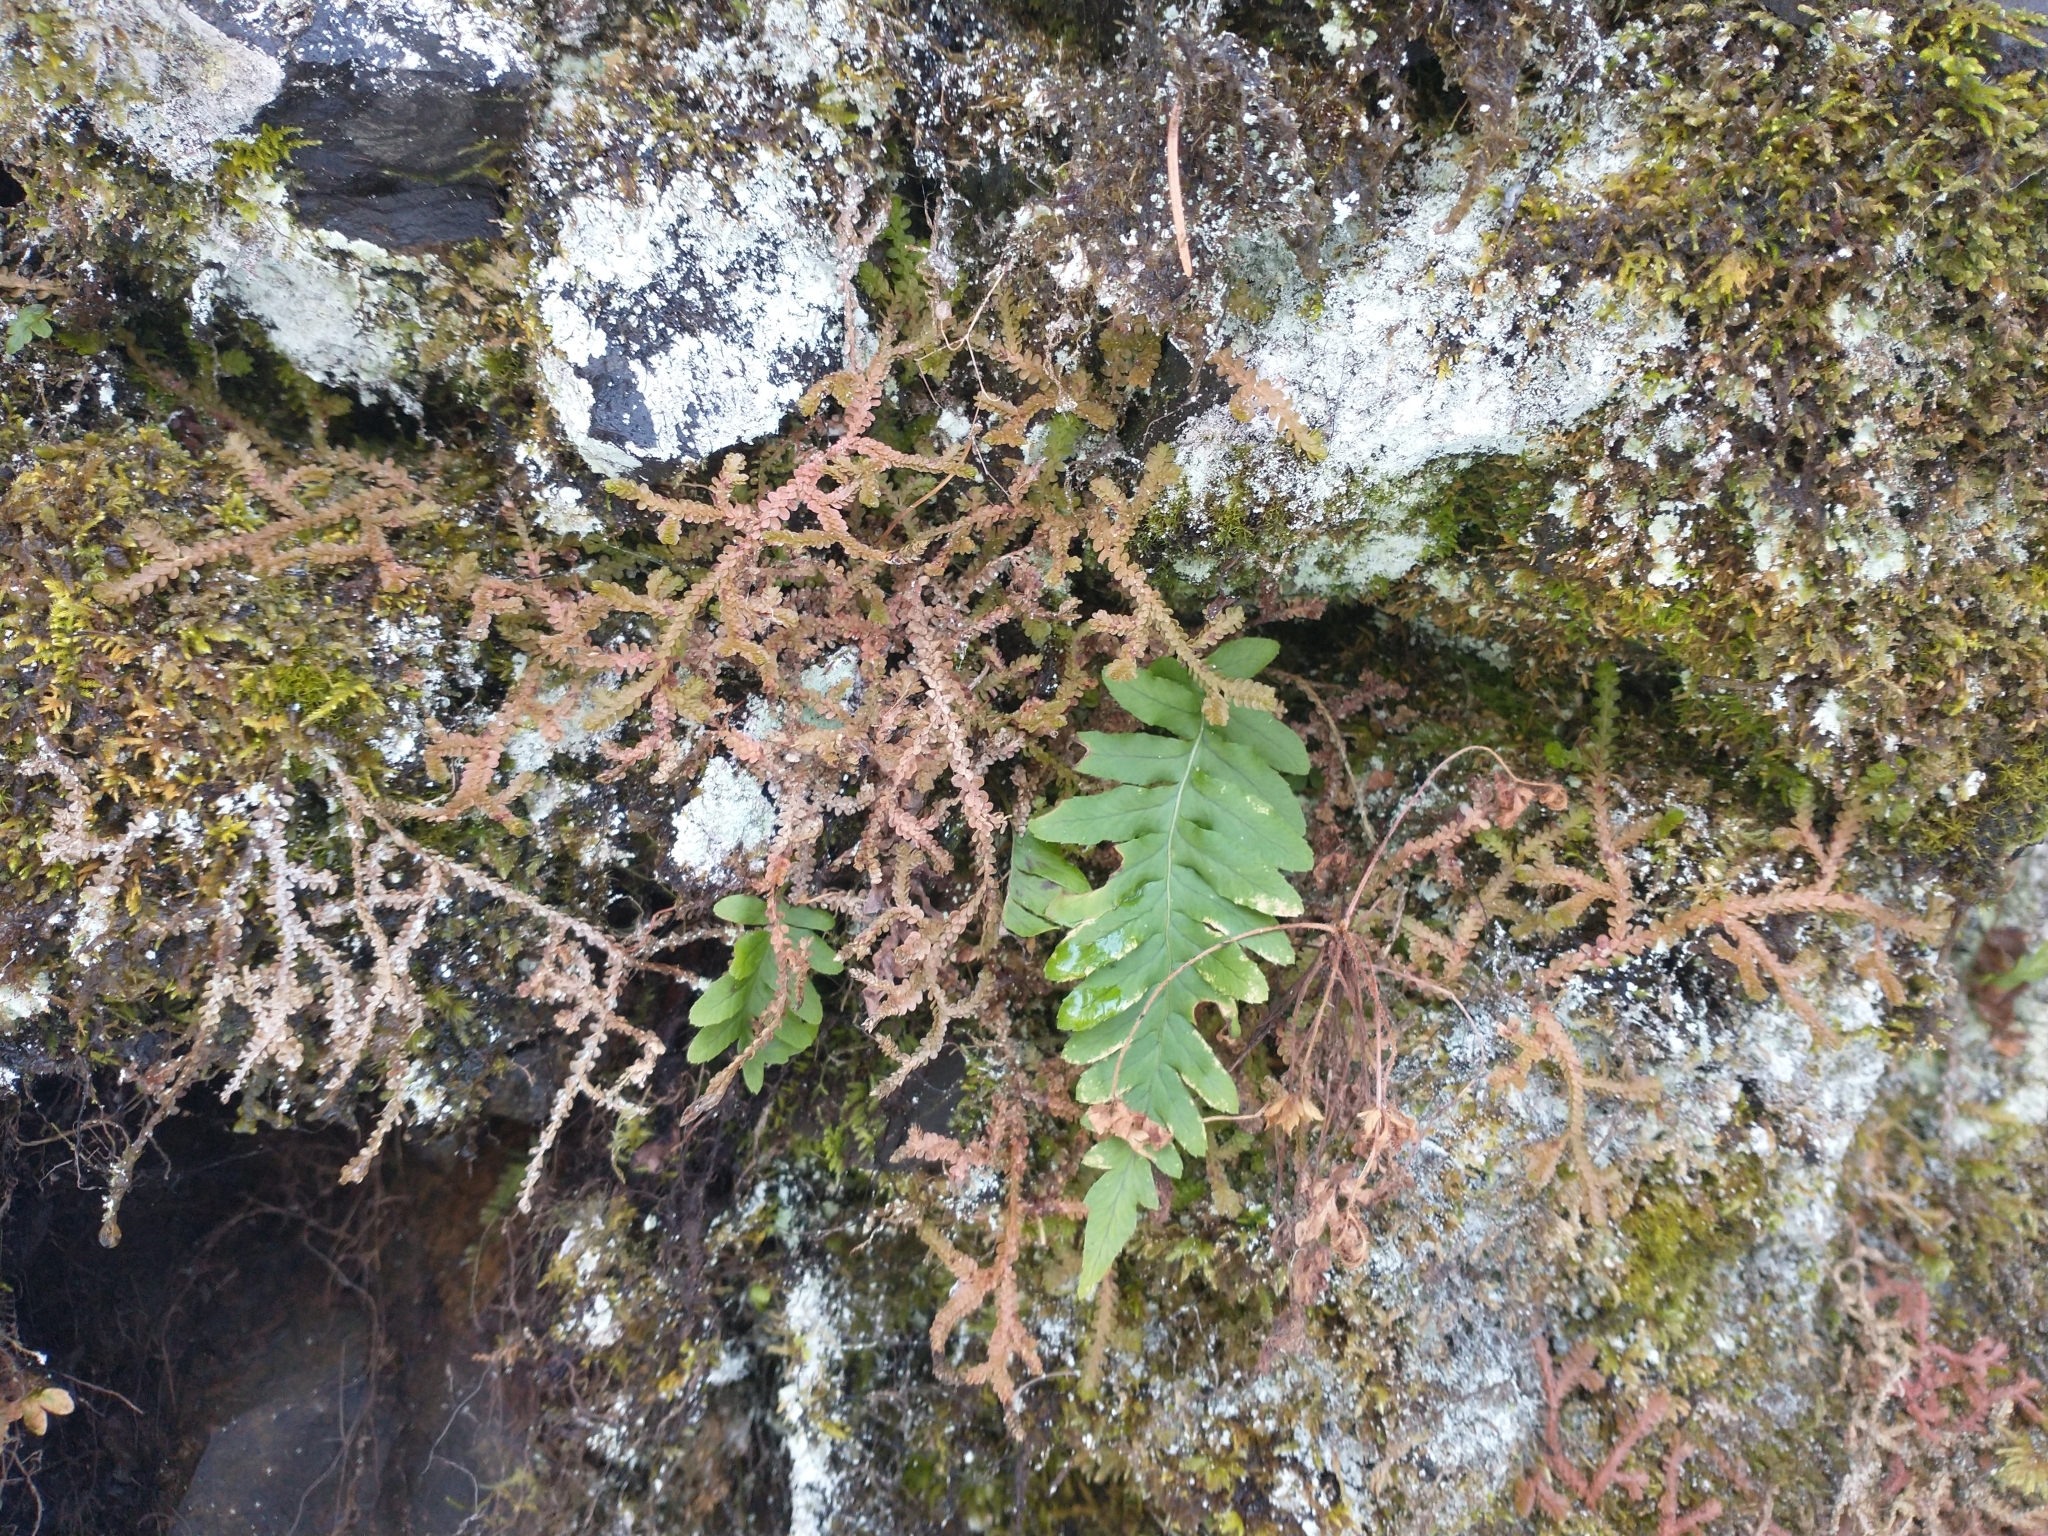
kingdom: Plantae
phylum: Tracheophyta
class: Lycopodiopsida
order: Selaginellales
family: Selaginellaceae
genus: Selaginella
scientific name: Selaginella douglasii
